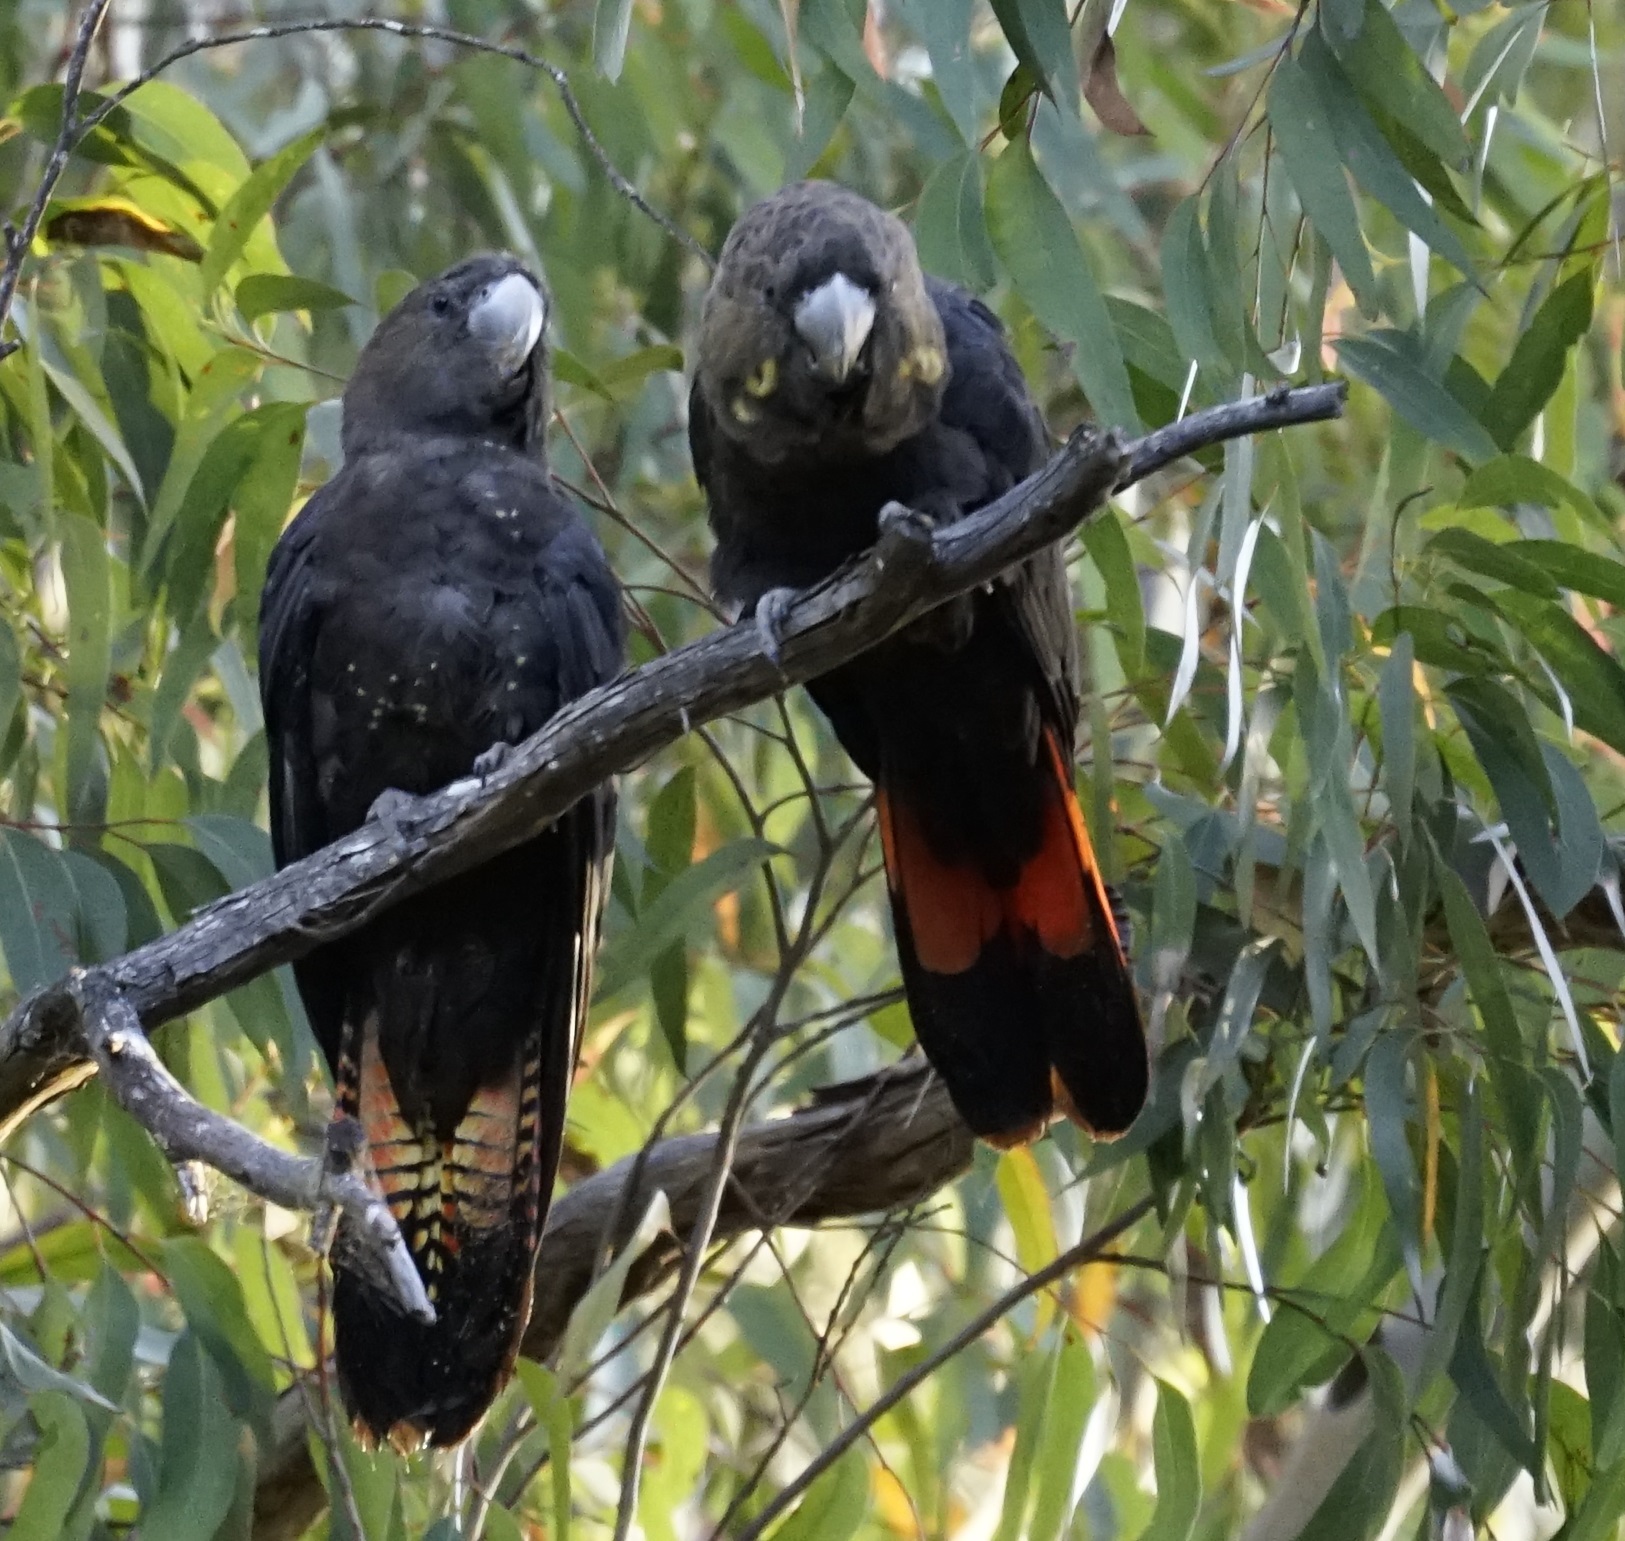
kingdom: Animalia
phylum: Chordata
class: Aves
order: Psittaciformes
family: Psittacidae
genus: Calyptorhynchus
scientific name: Calyptorhynchus lathami
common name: Glossy black cockatoo
